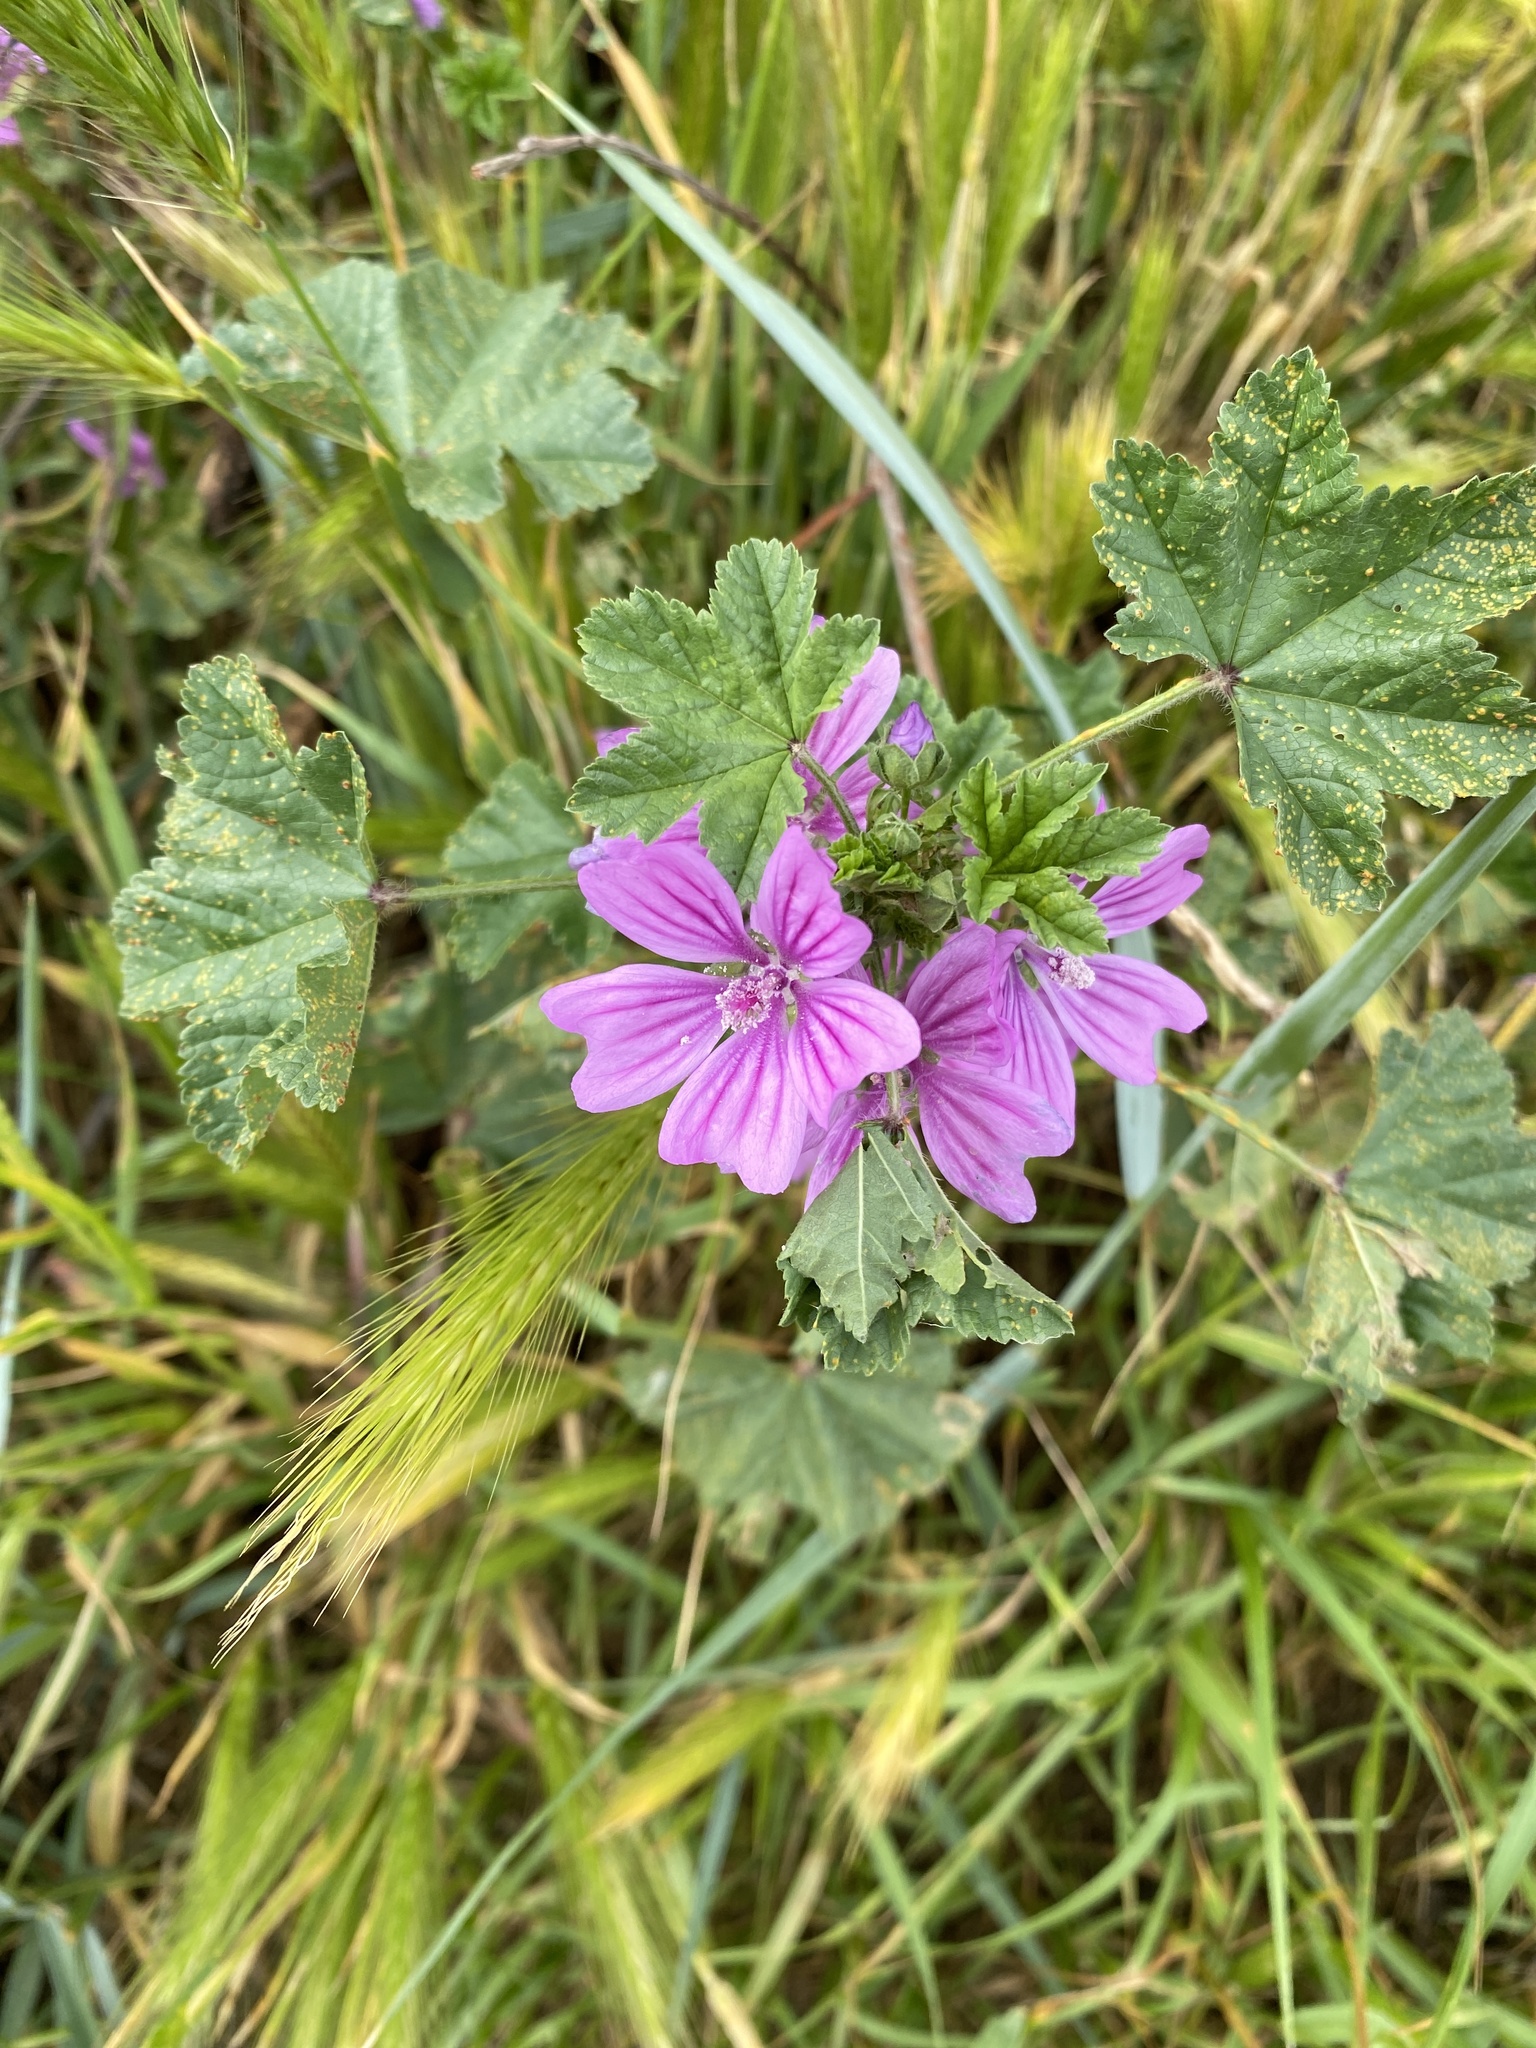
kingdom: Plantae
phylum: Tracheophyta
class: Magnoliopsida
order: Malvales
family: Malvaceae
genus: Malva
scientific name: Malva sylvestris
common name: Common mallow
